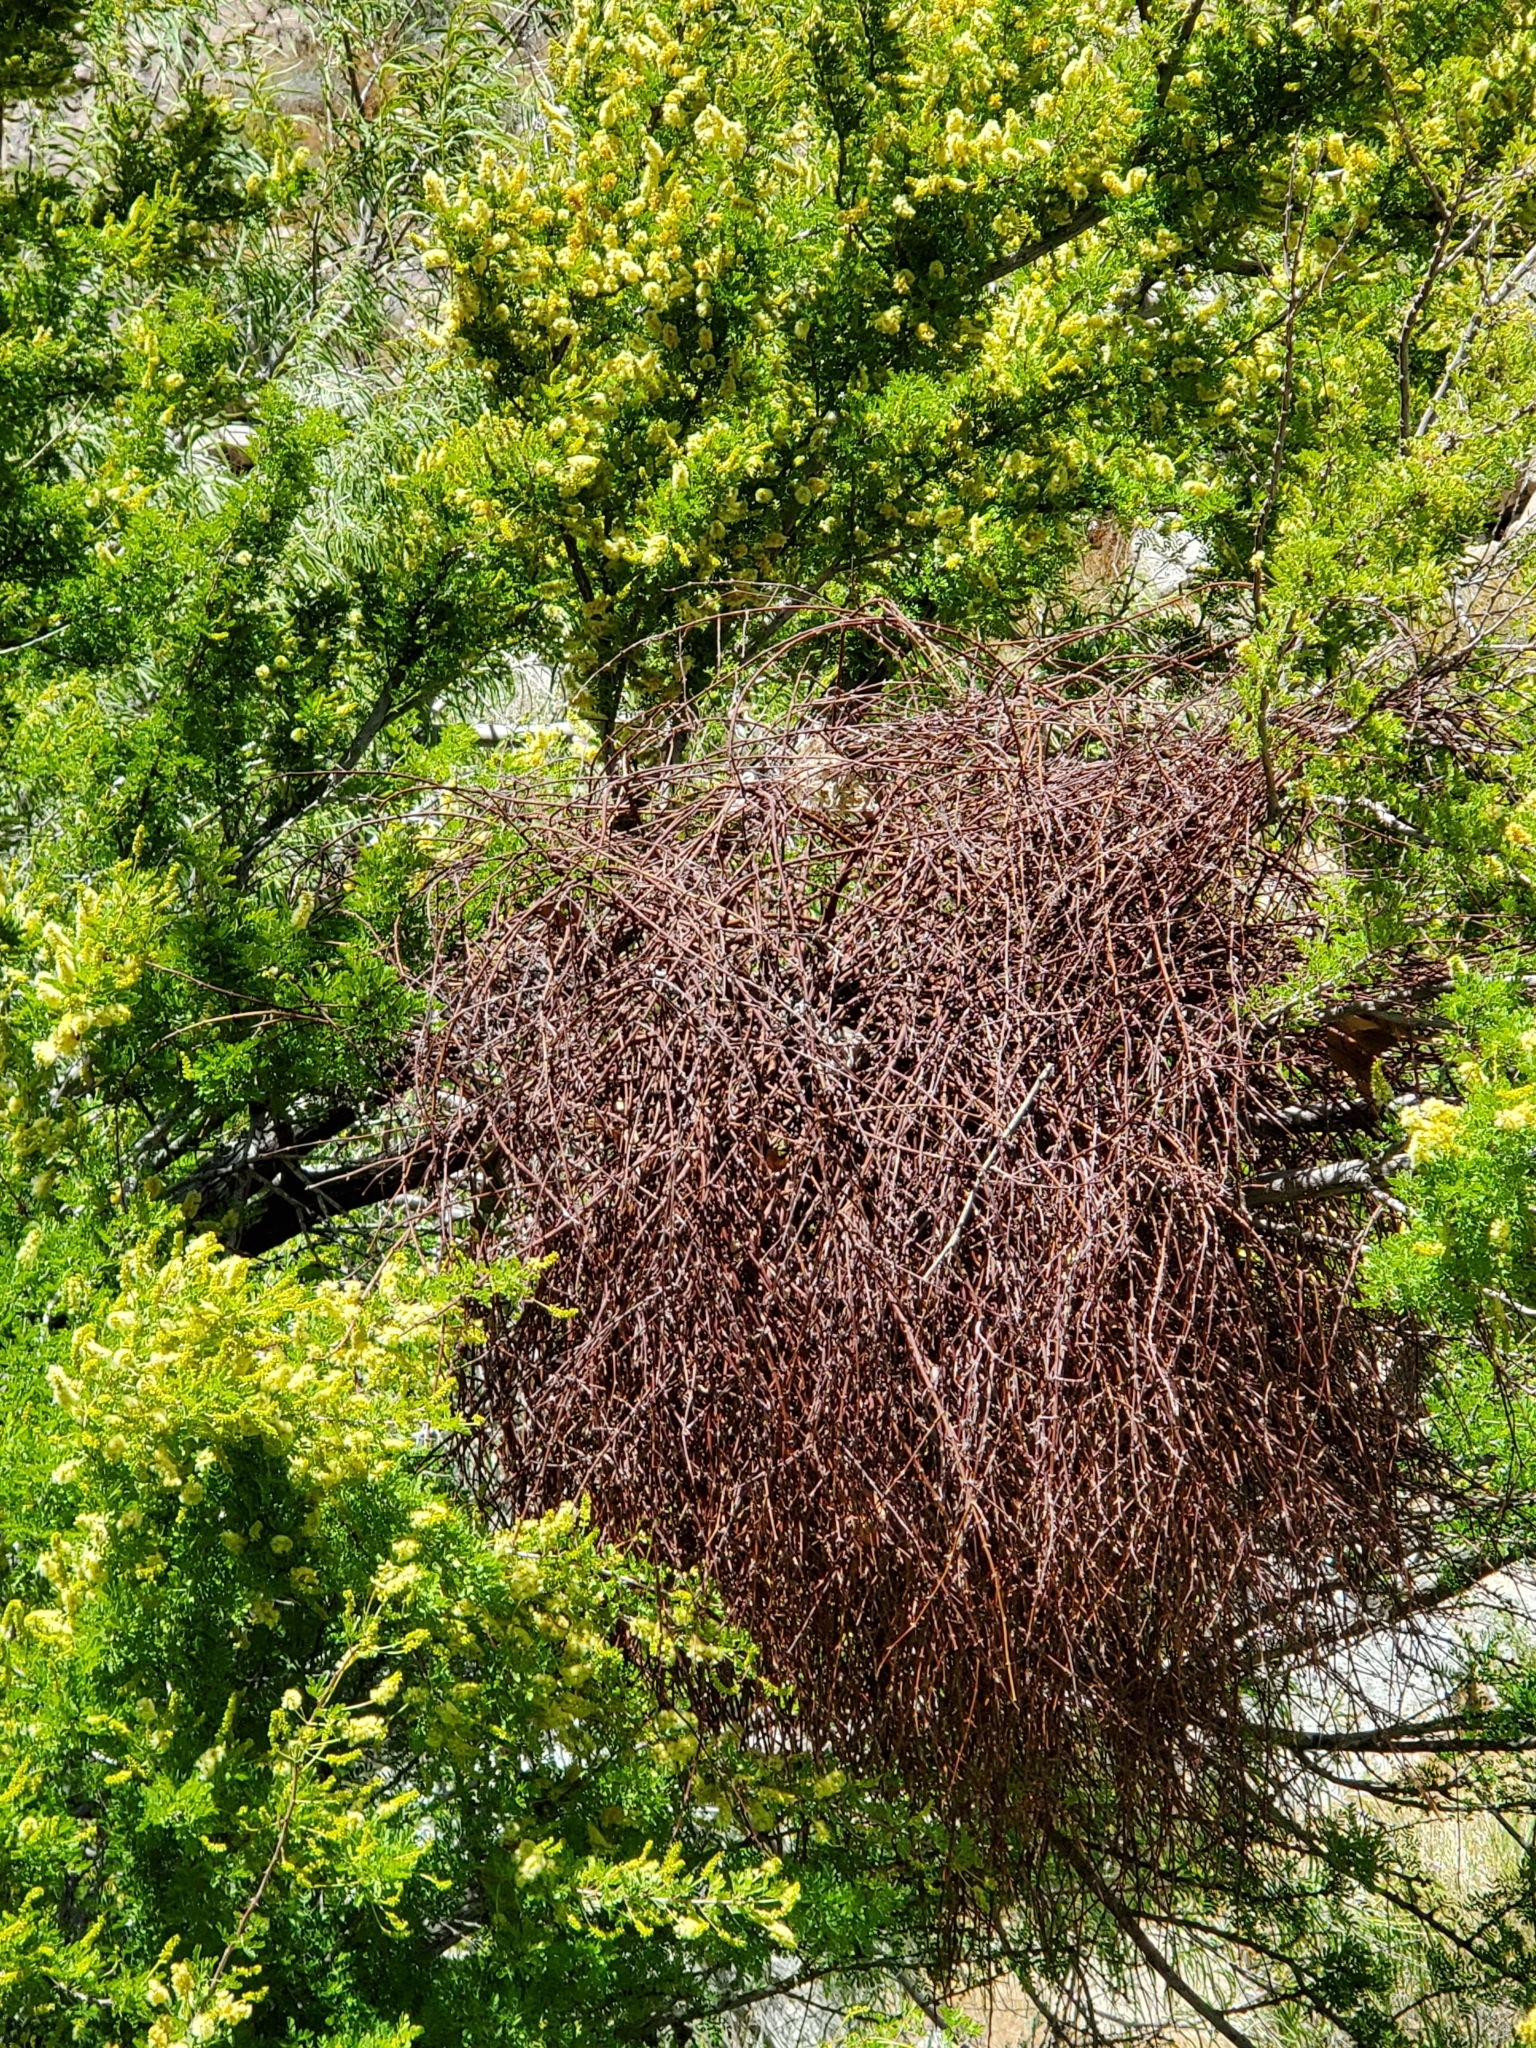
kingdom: Plantae
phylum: Tracheophyta
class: Magnoliopsida
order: Santalales
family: Viscaceae
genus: Phoradendron
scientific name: Phoradendron californicum
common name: Acacia mistletoe
